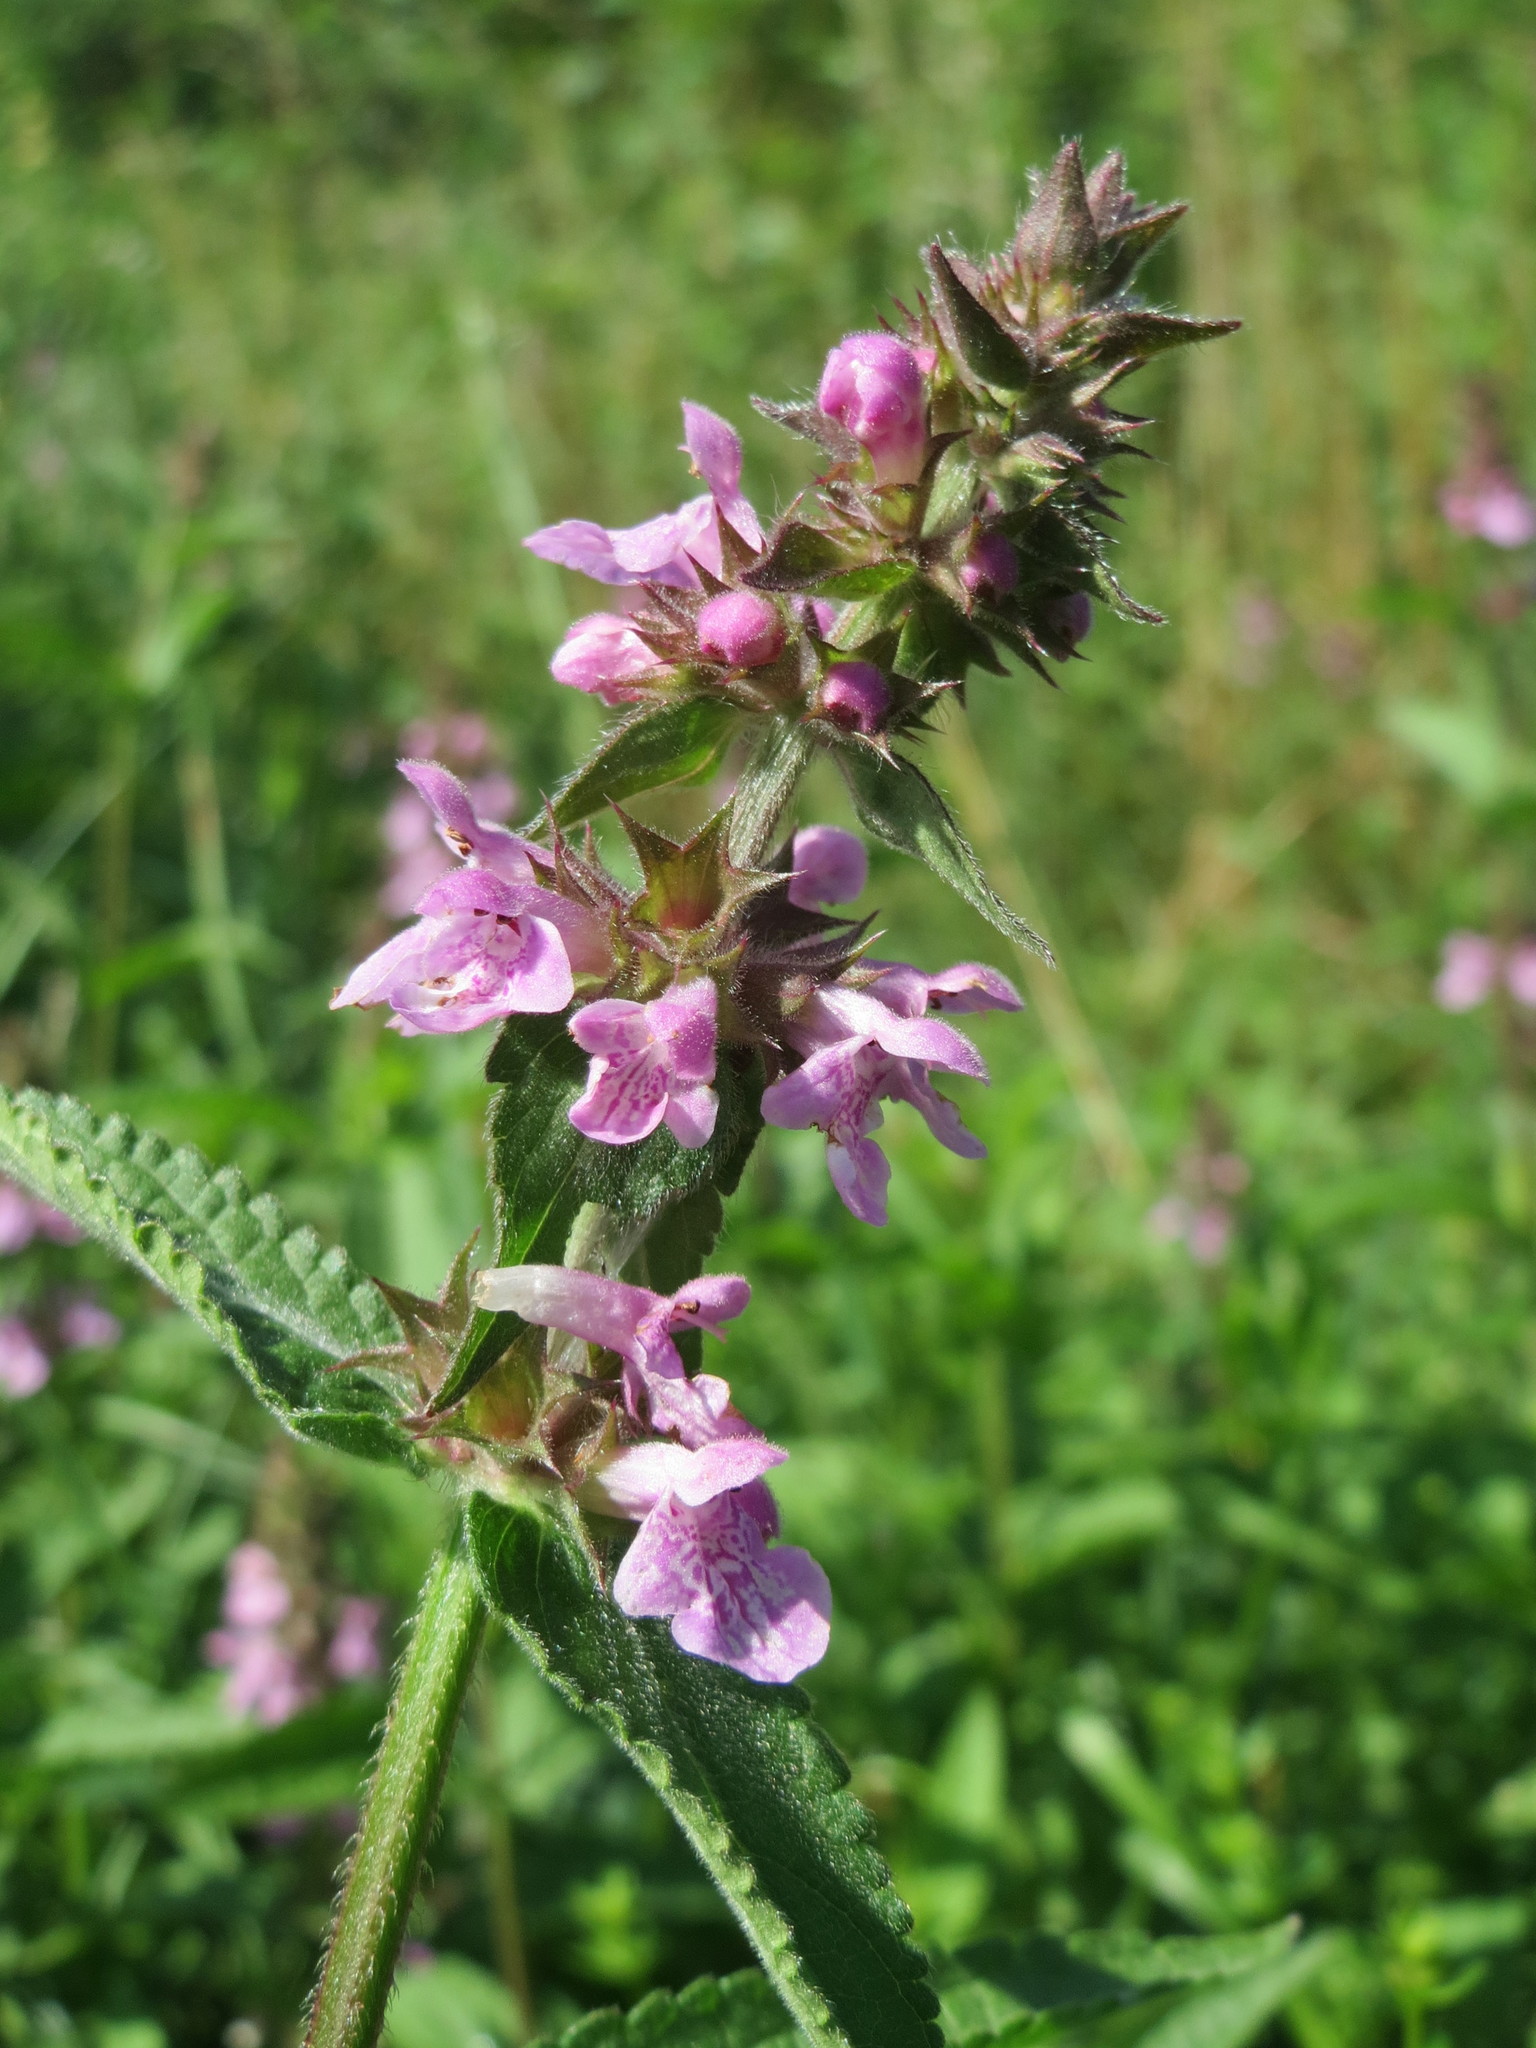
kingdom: Plantae
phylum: Tracheophyta
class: Magnoliopsida
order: Lamiales
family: Lamiaceae
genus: Stachys
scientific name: Stachys palustris
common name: Marsh woundwort
